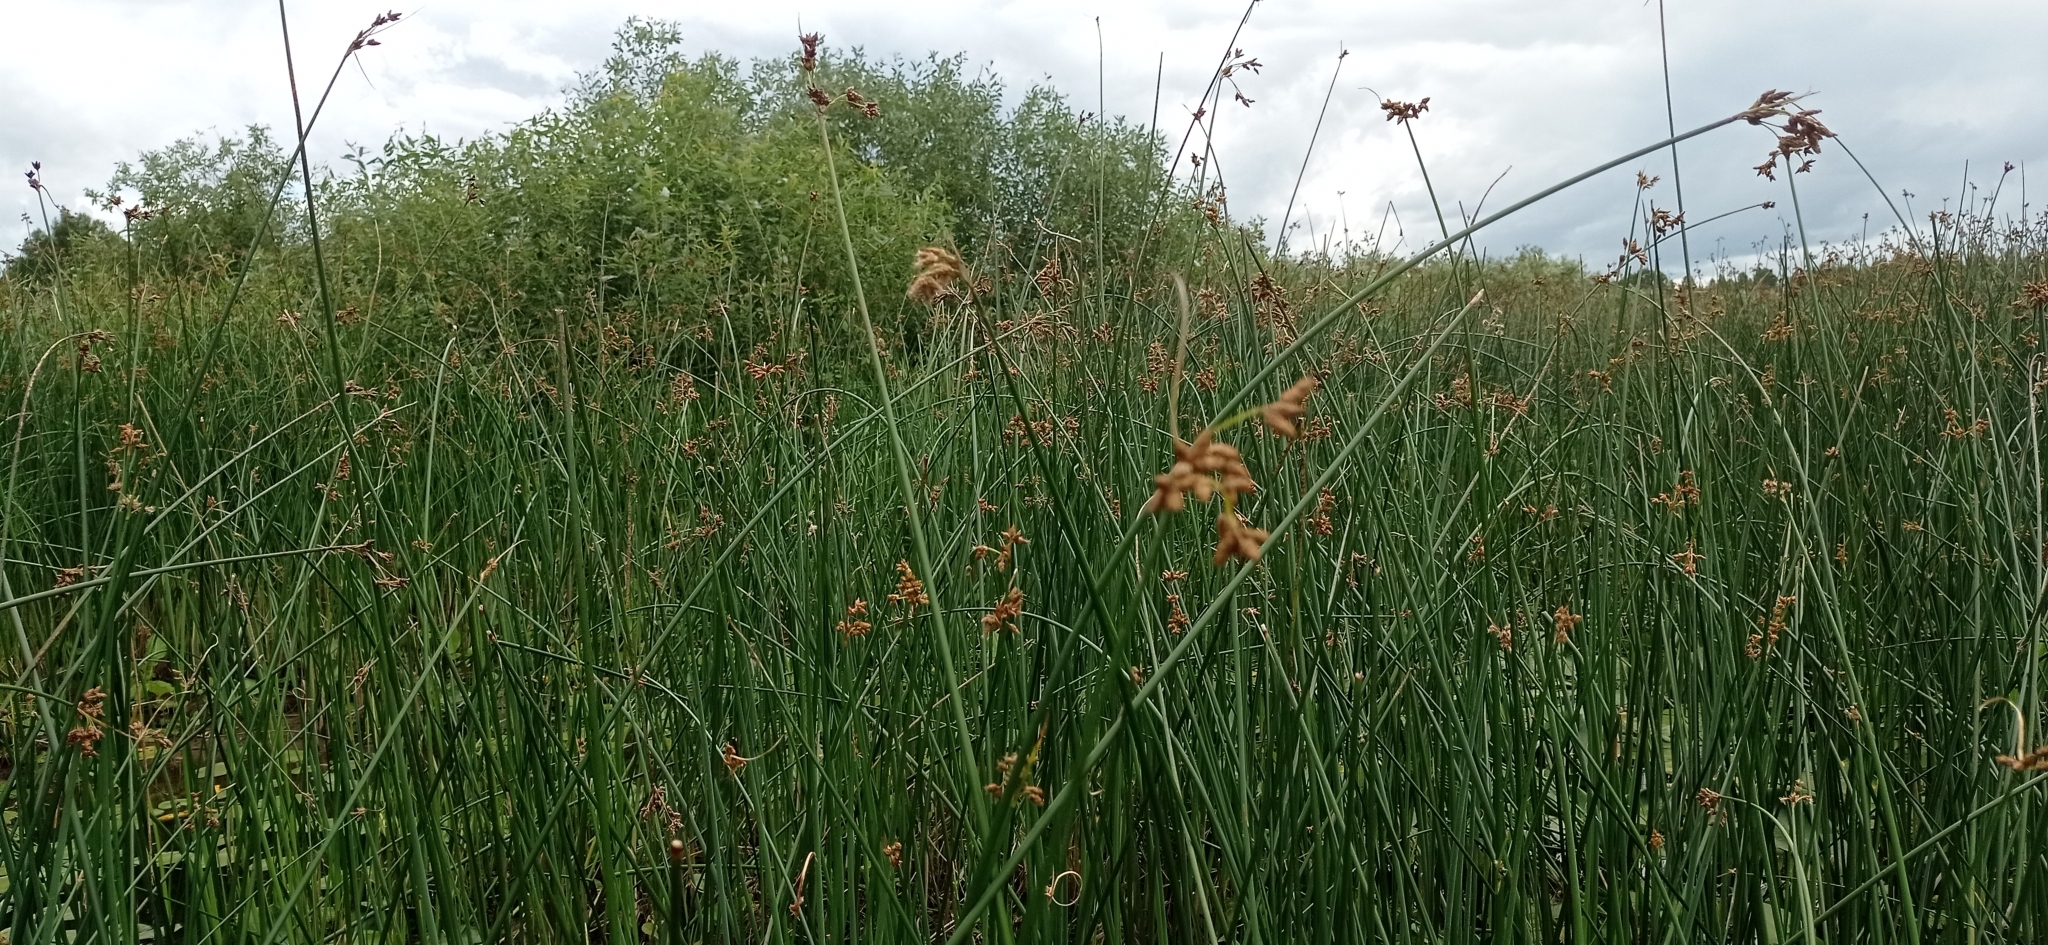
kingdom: Plantae
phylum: Tracheophyta
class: Liliopsida
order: Poales
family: Cyperaceae
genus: Schoenoplectus
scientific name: Schoenoplectus lacustris
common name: Common club-rush
